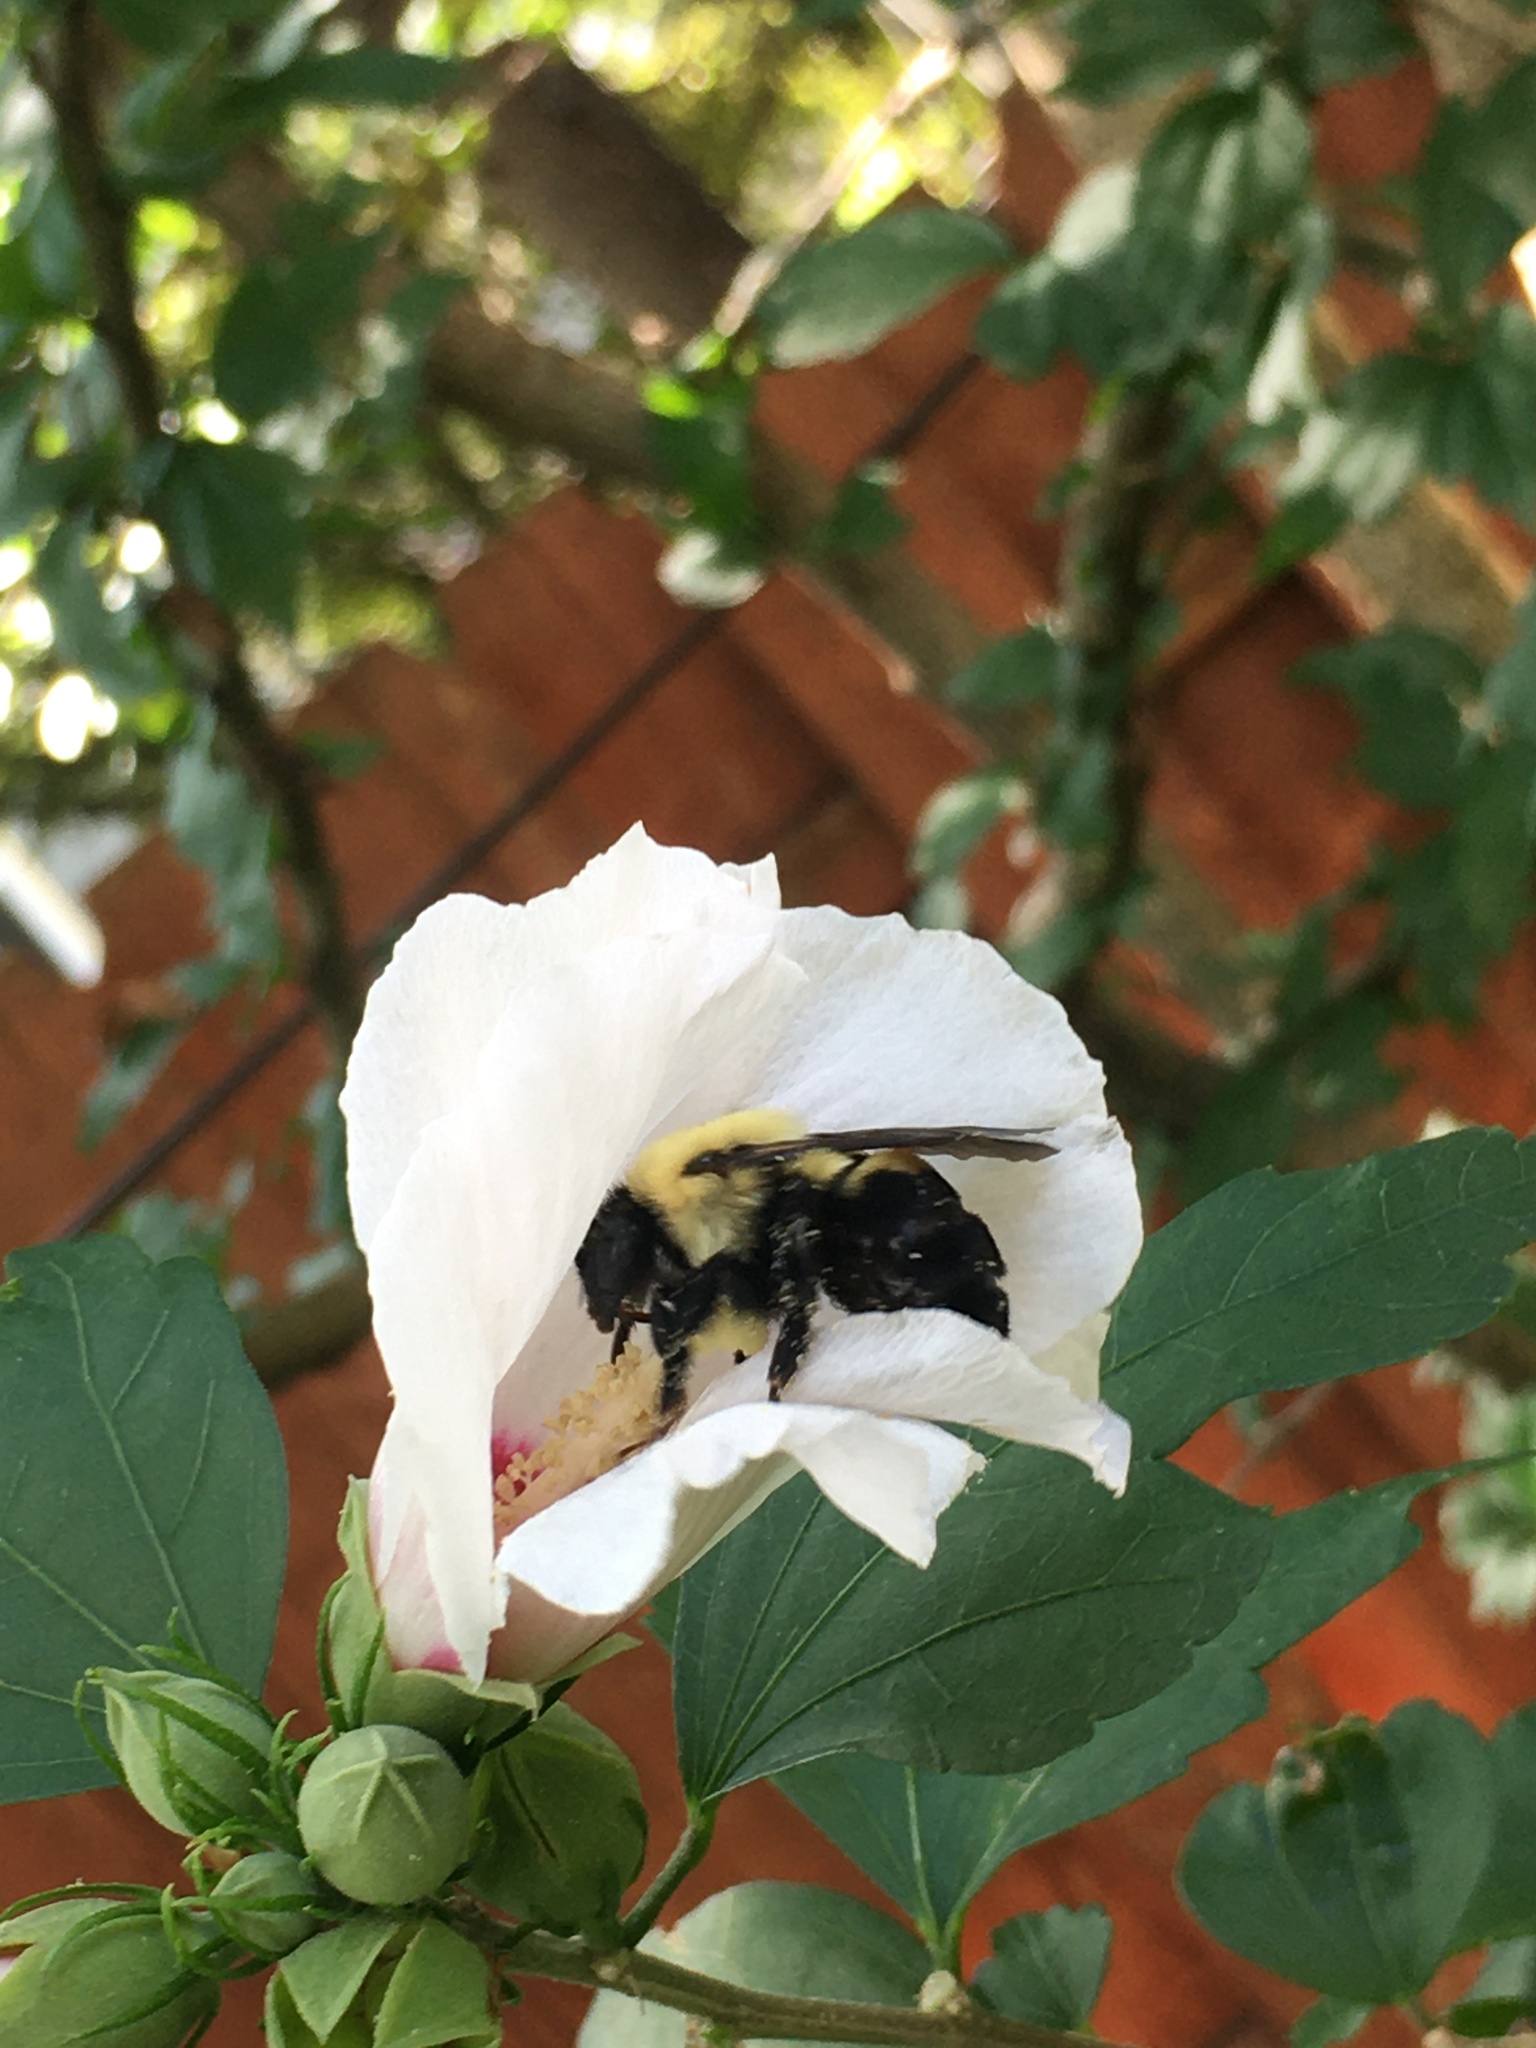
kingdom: Animalia
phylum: Arthropoda
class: Insecta
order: Hymenoptera
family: Apidae
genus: Bombus
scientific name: Bombus griseocollis
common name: Brown-belted bumble bee
